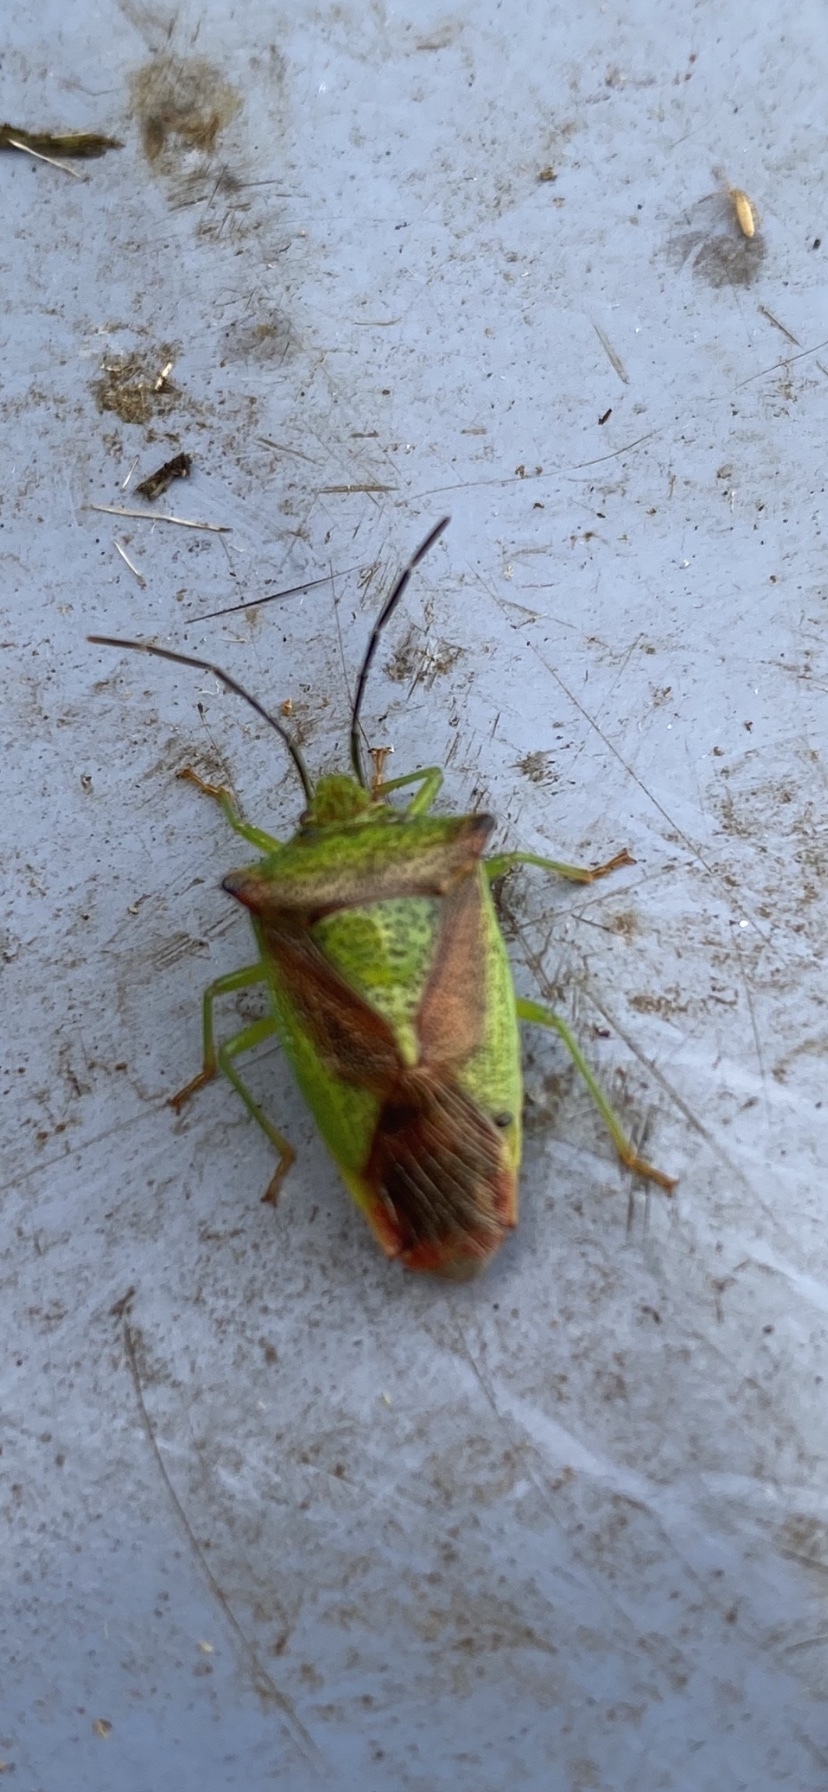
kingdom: Animalia
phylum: Arthropoda
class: Insecta
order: Hemiptera
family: Acanthosomatidae
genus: Acanthosoma
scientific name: Acanthosoma haemorrhoidale
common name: Hawthorn shieldbug
